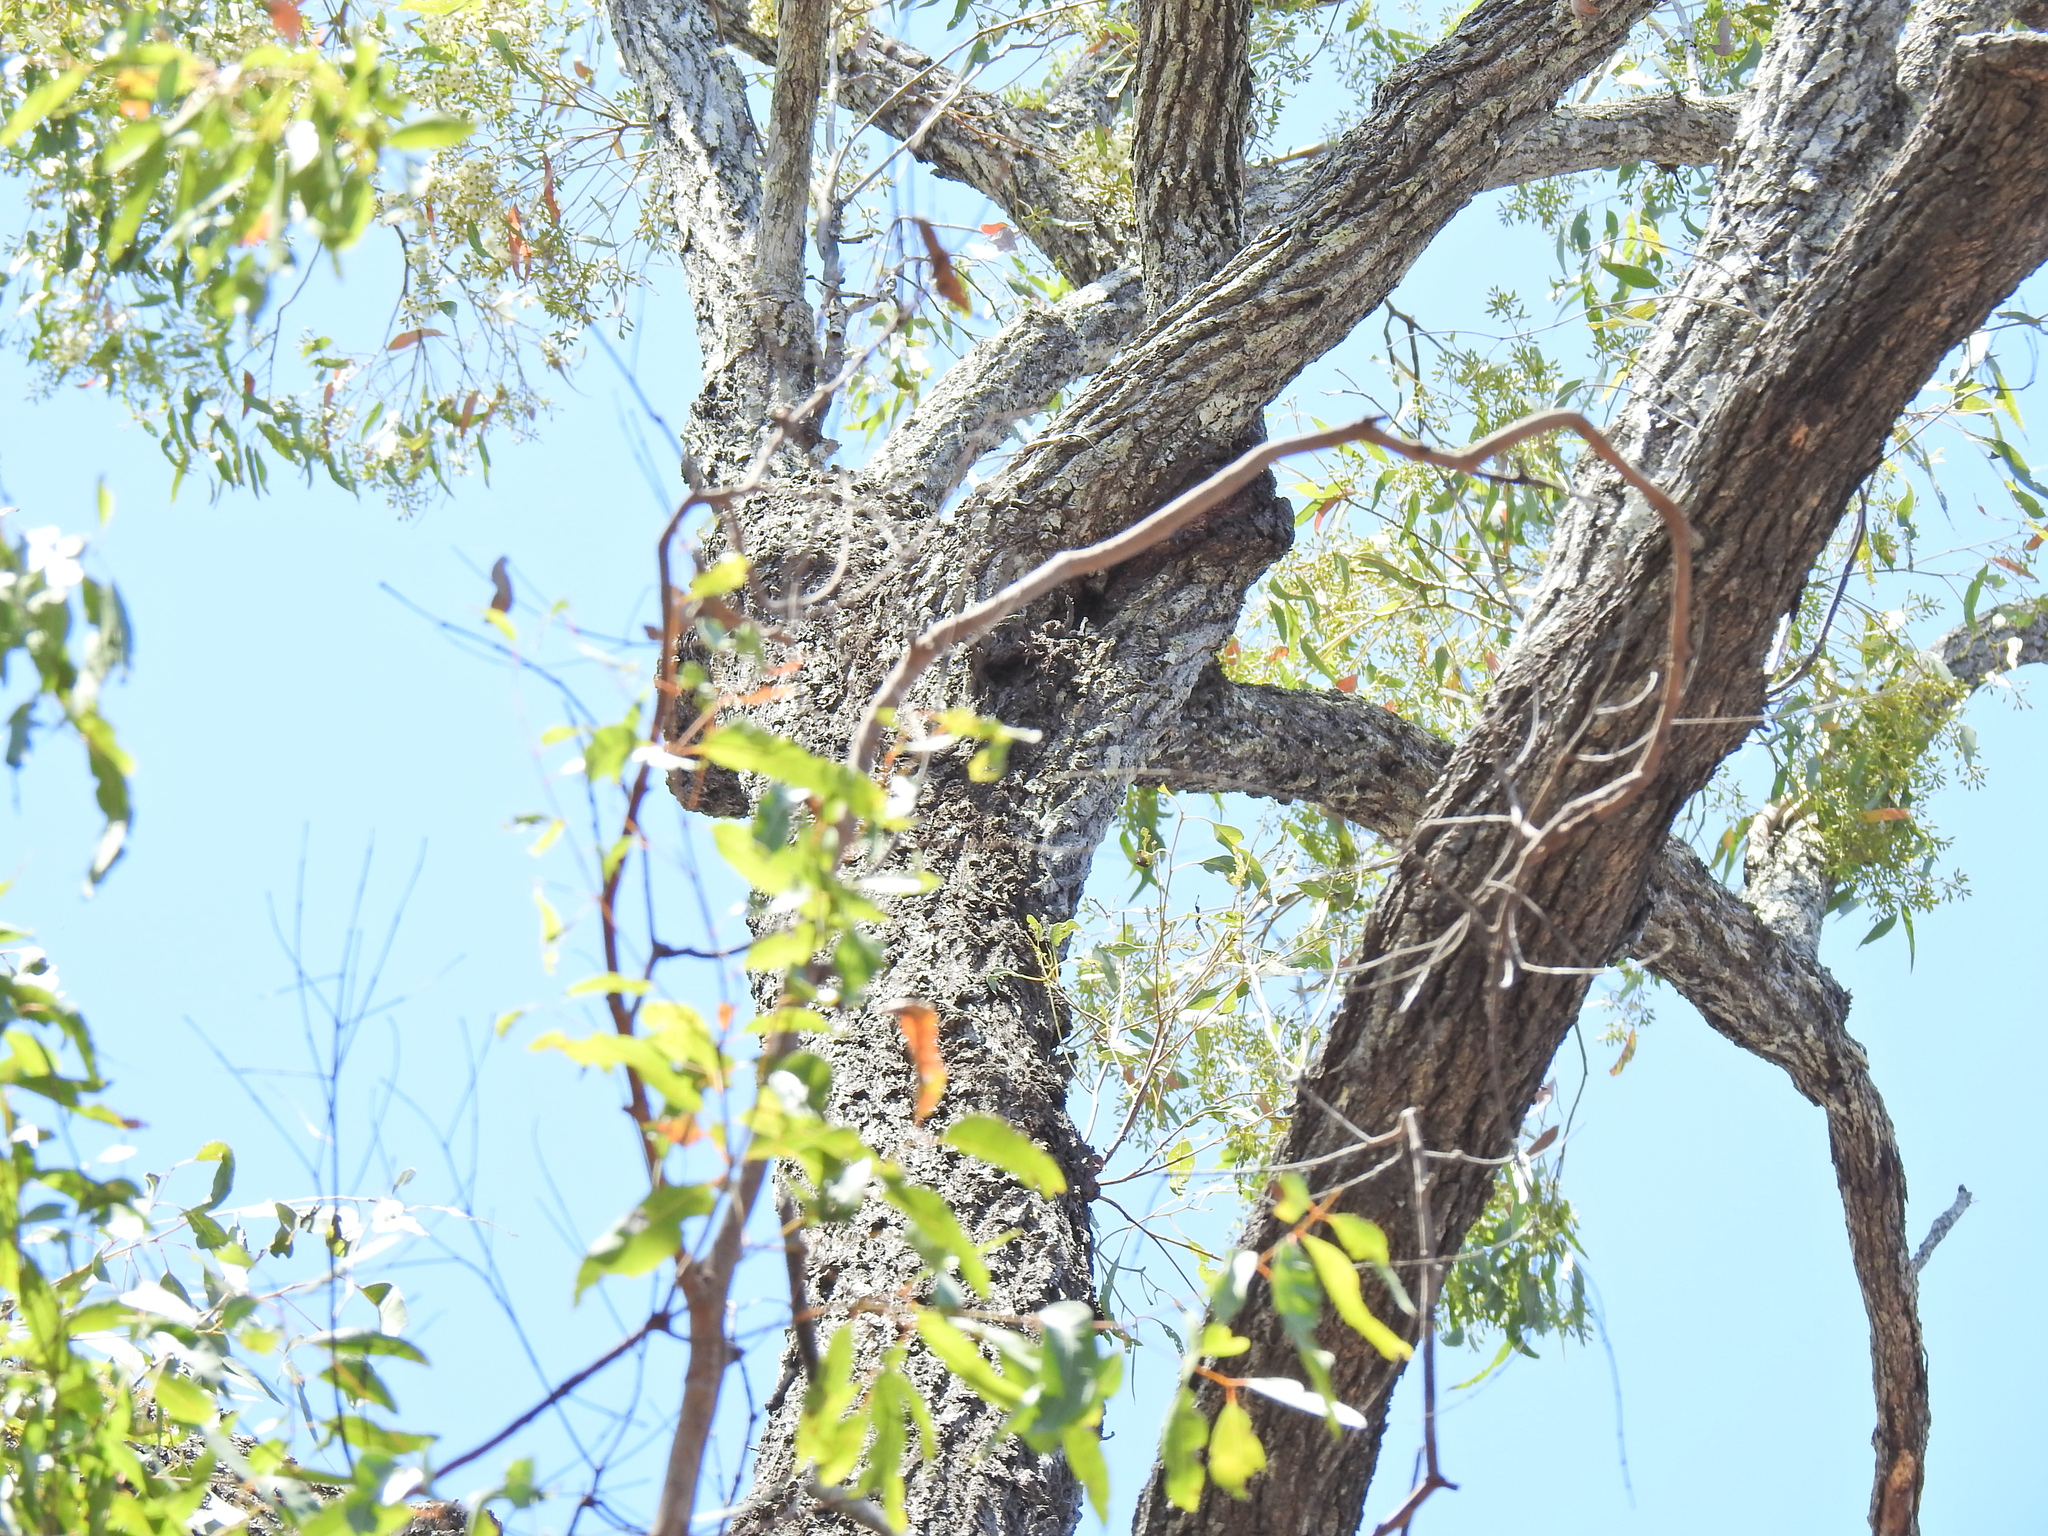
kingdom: Plantae
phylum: Tracheophyta
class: Magnoliopsida
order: Myrtales
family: Myrtaceae
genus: Eucalyptus
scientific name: Eucalyptus siderophloia
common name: Broad-leafed-ironbark
